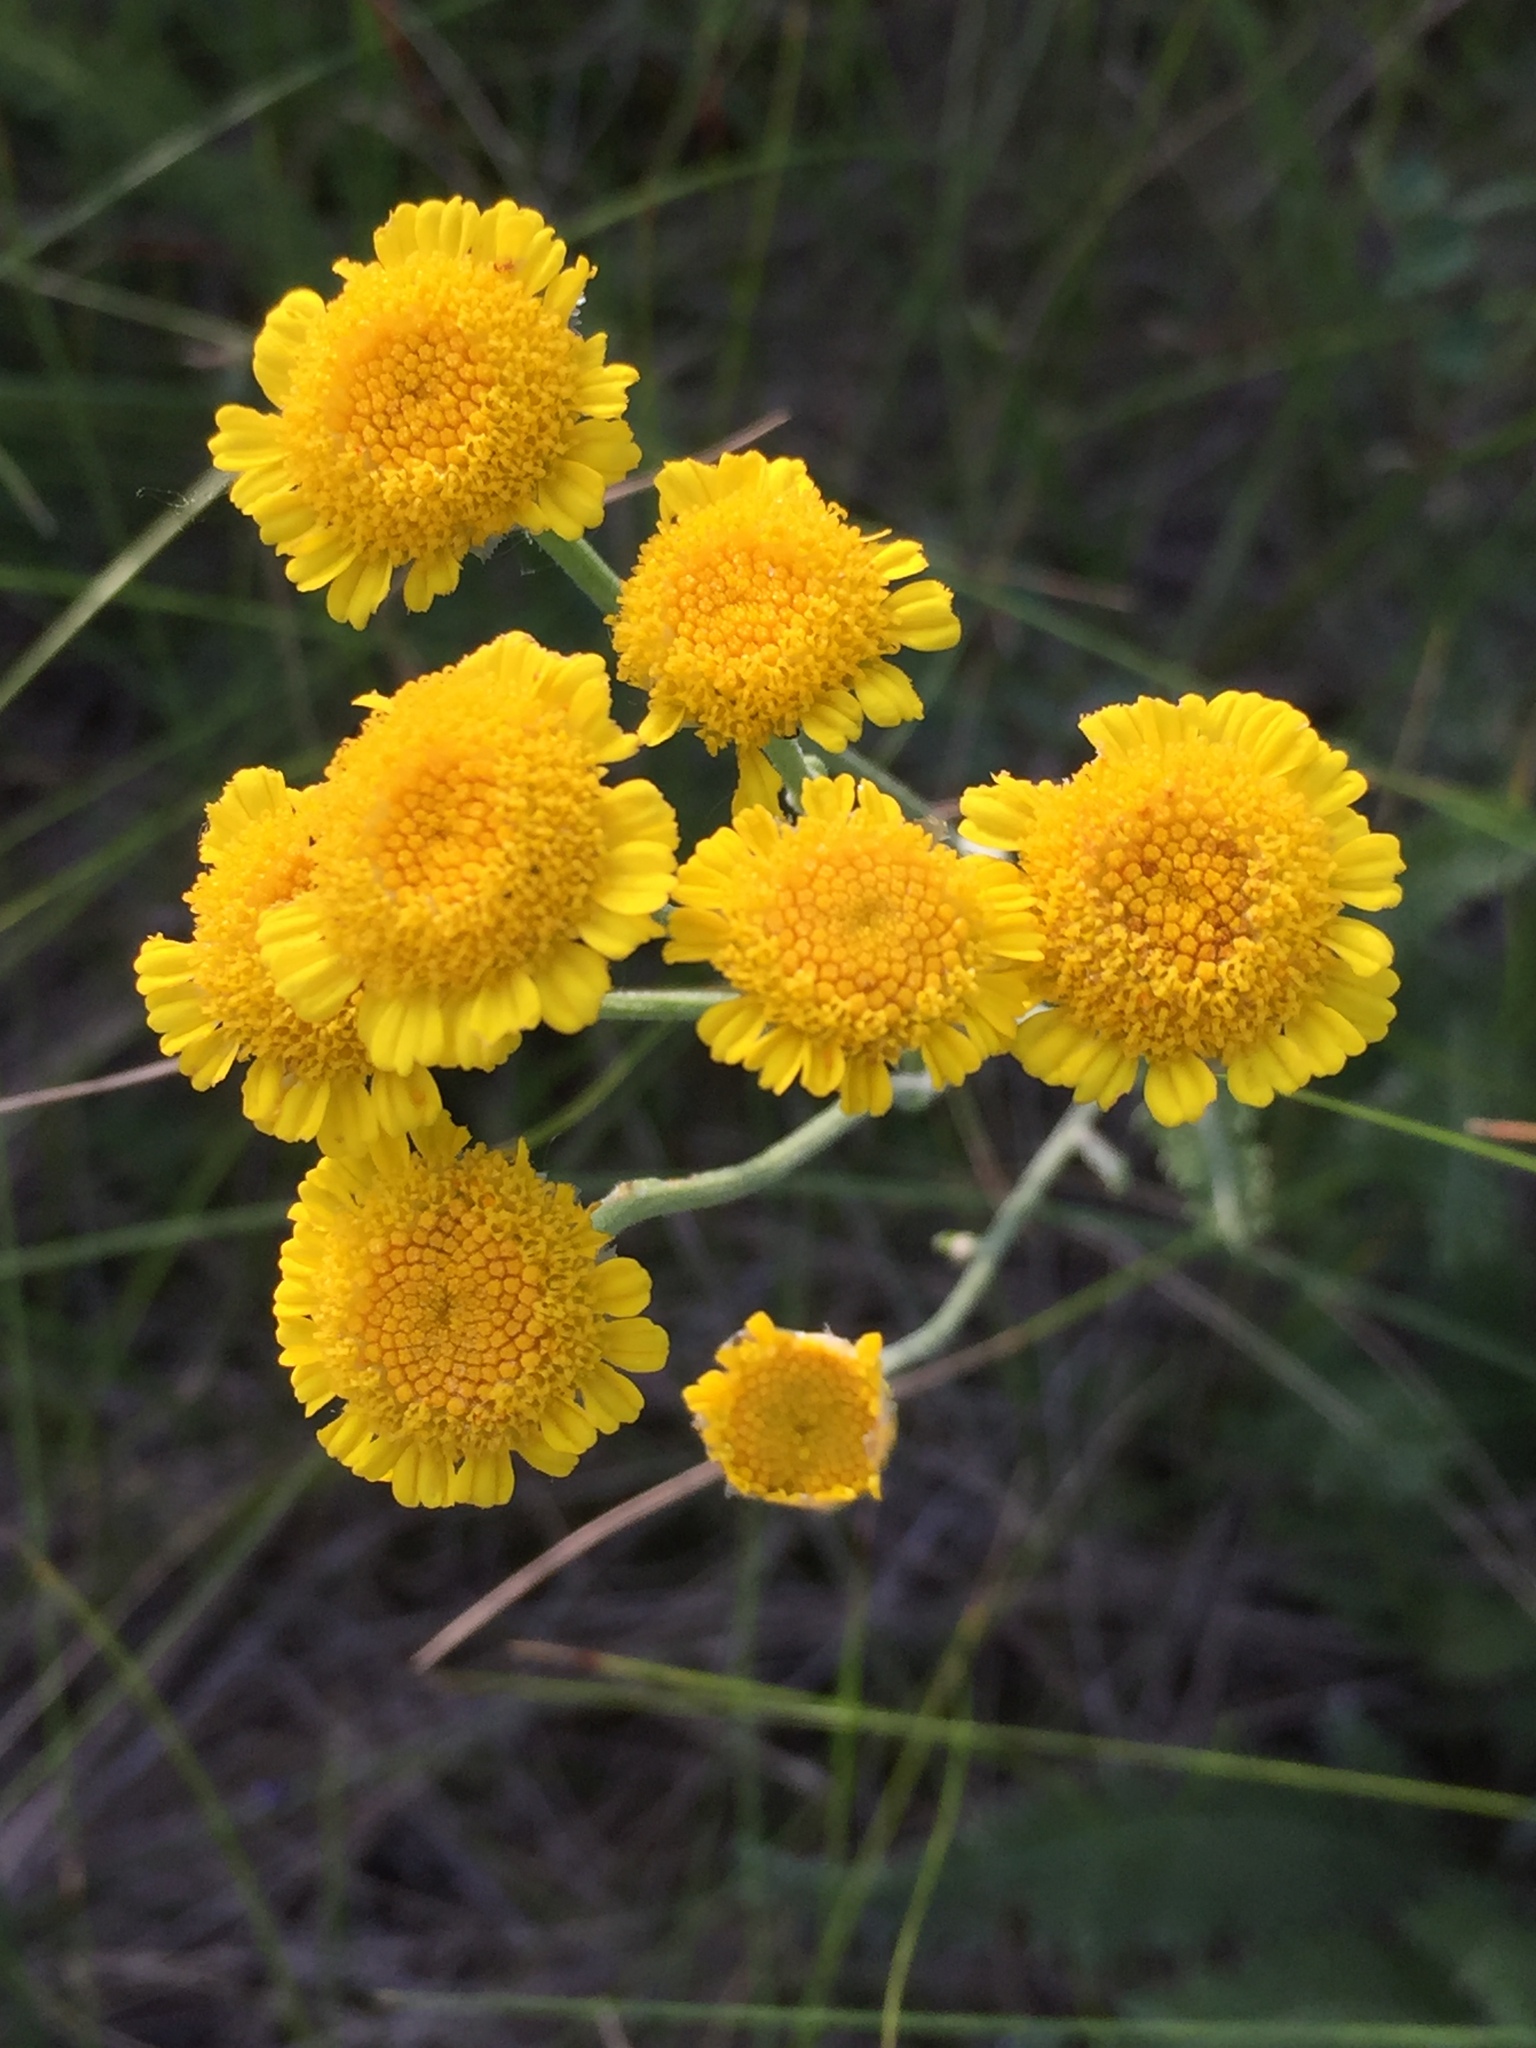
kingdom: Plantae
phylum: Tracheophyta
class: Magnoliopsida
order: Asterales
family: Asteraceae
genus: Tanacetum
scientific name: Tanacetum achilleifolium
